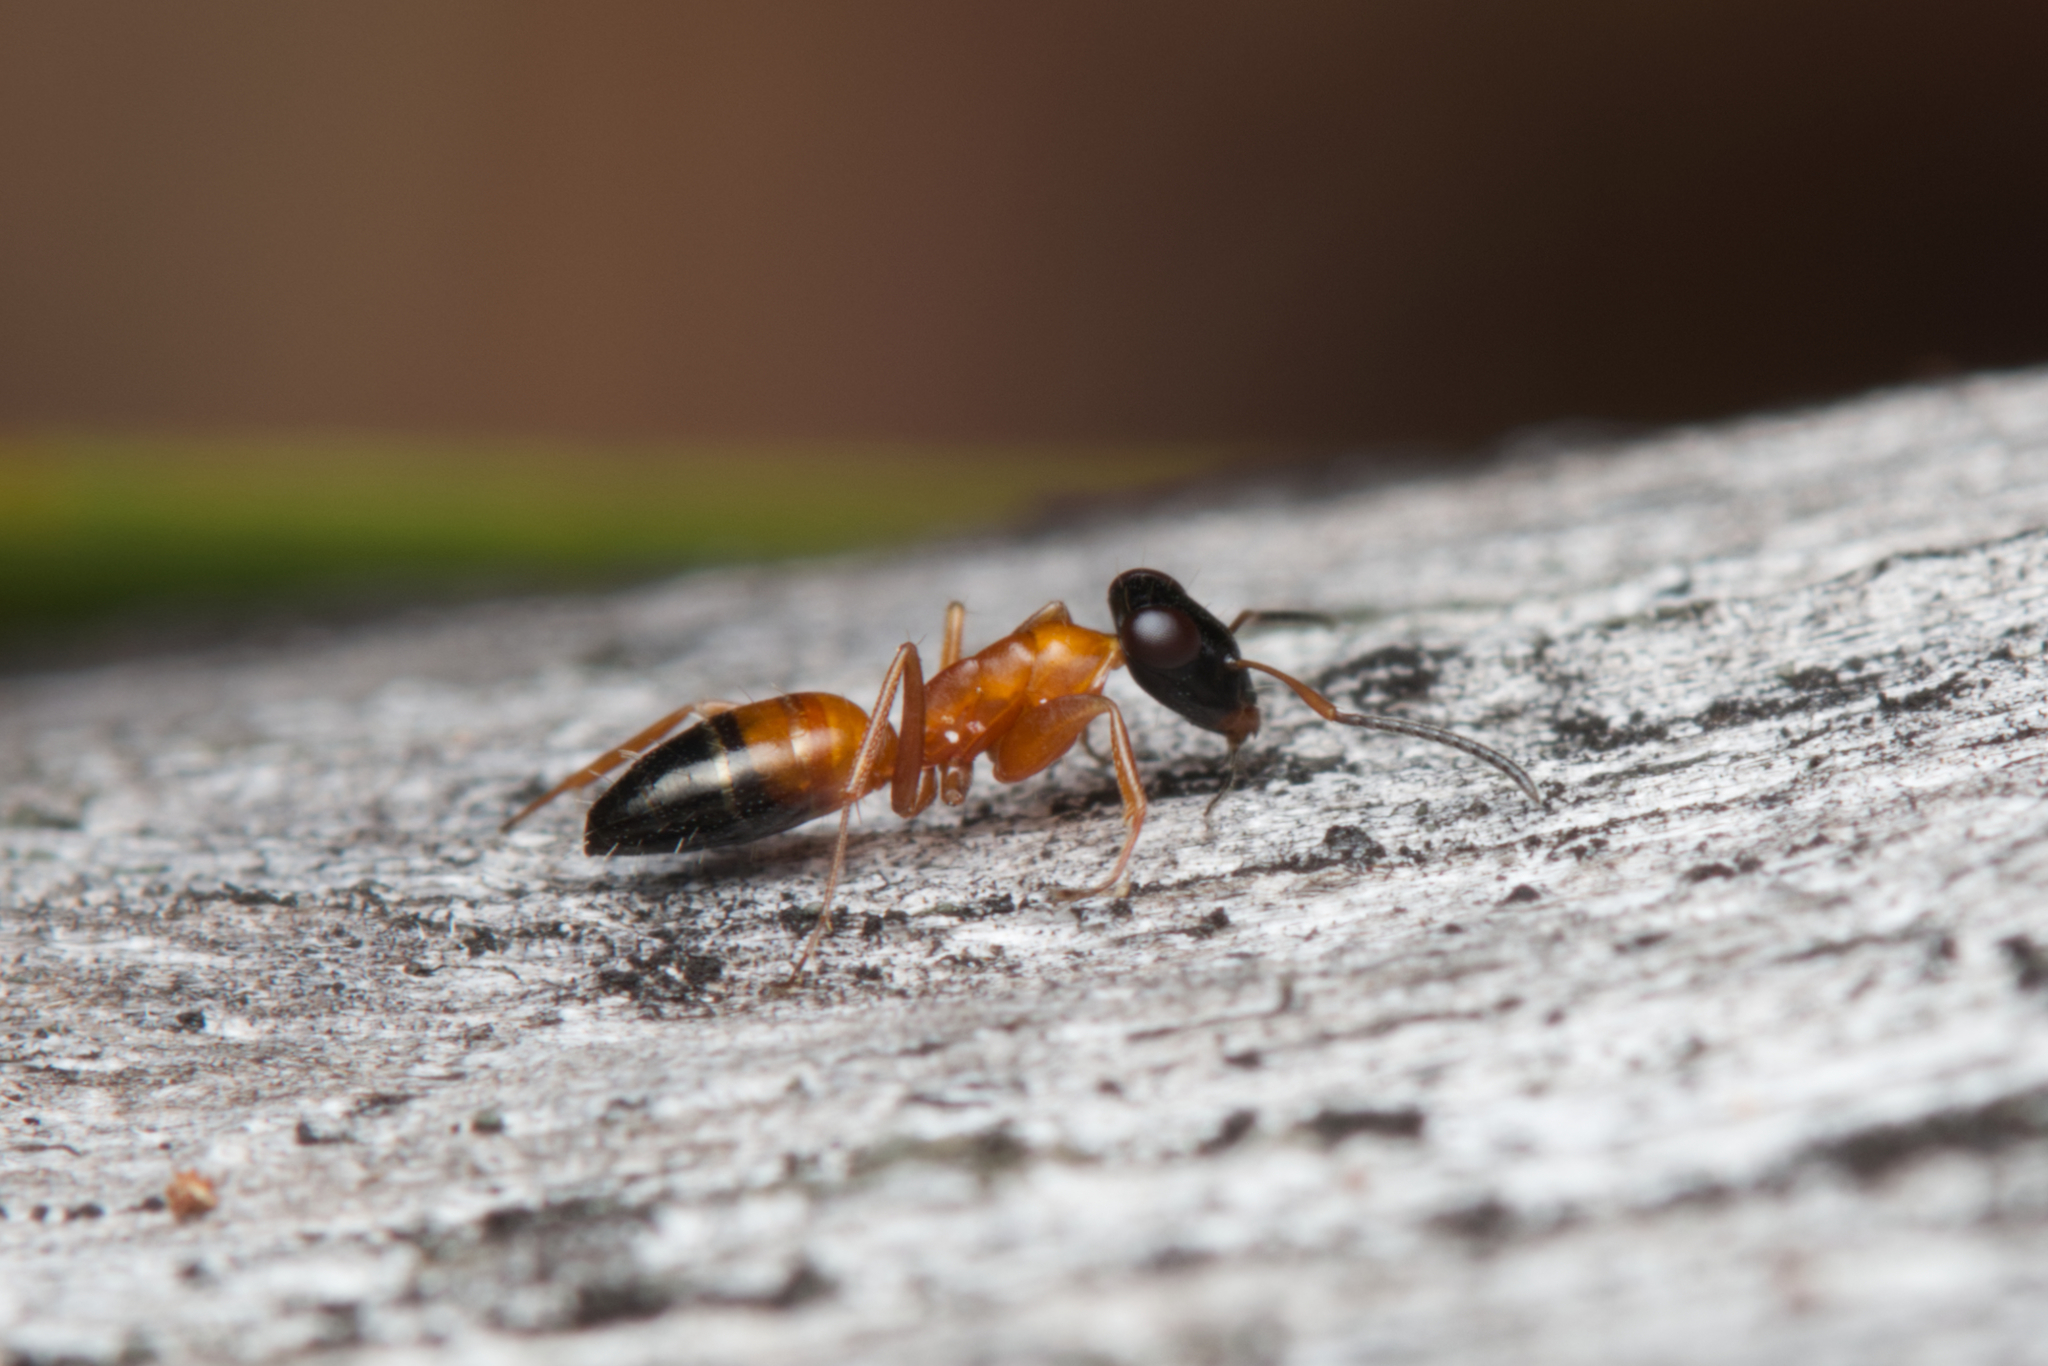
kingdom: Animalia
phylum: Arthropoda
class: Insecta
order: Hymenoptera
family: Formicidae
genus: Opisthopsis
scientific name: Opisthopsis rufithorax
